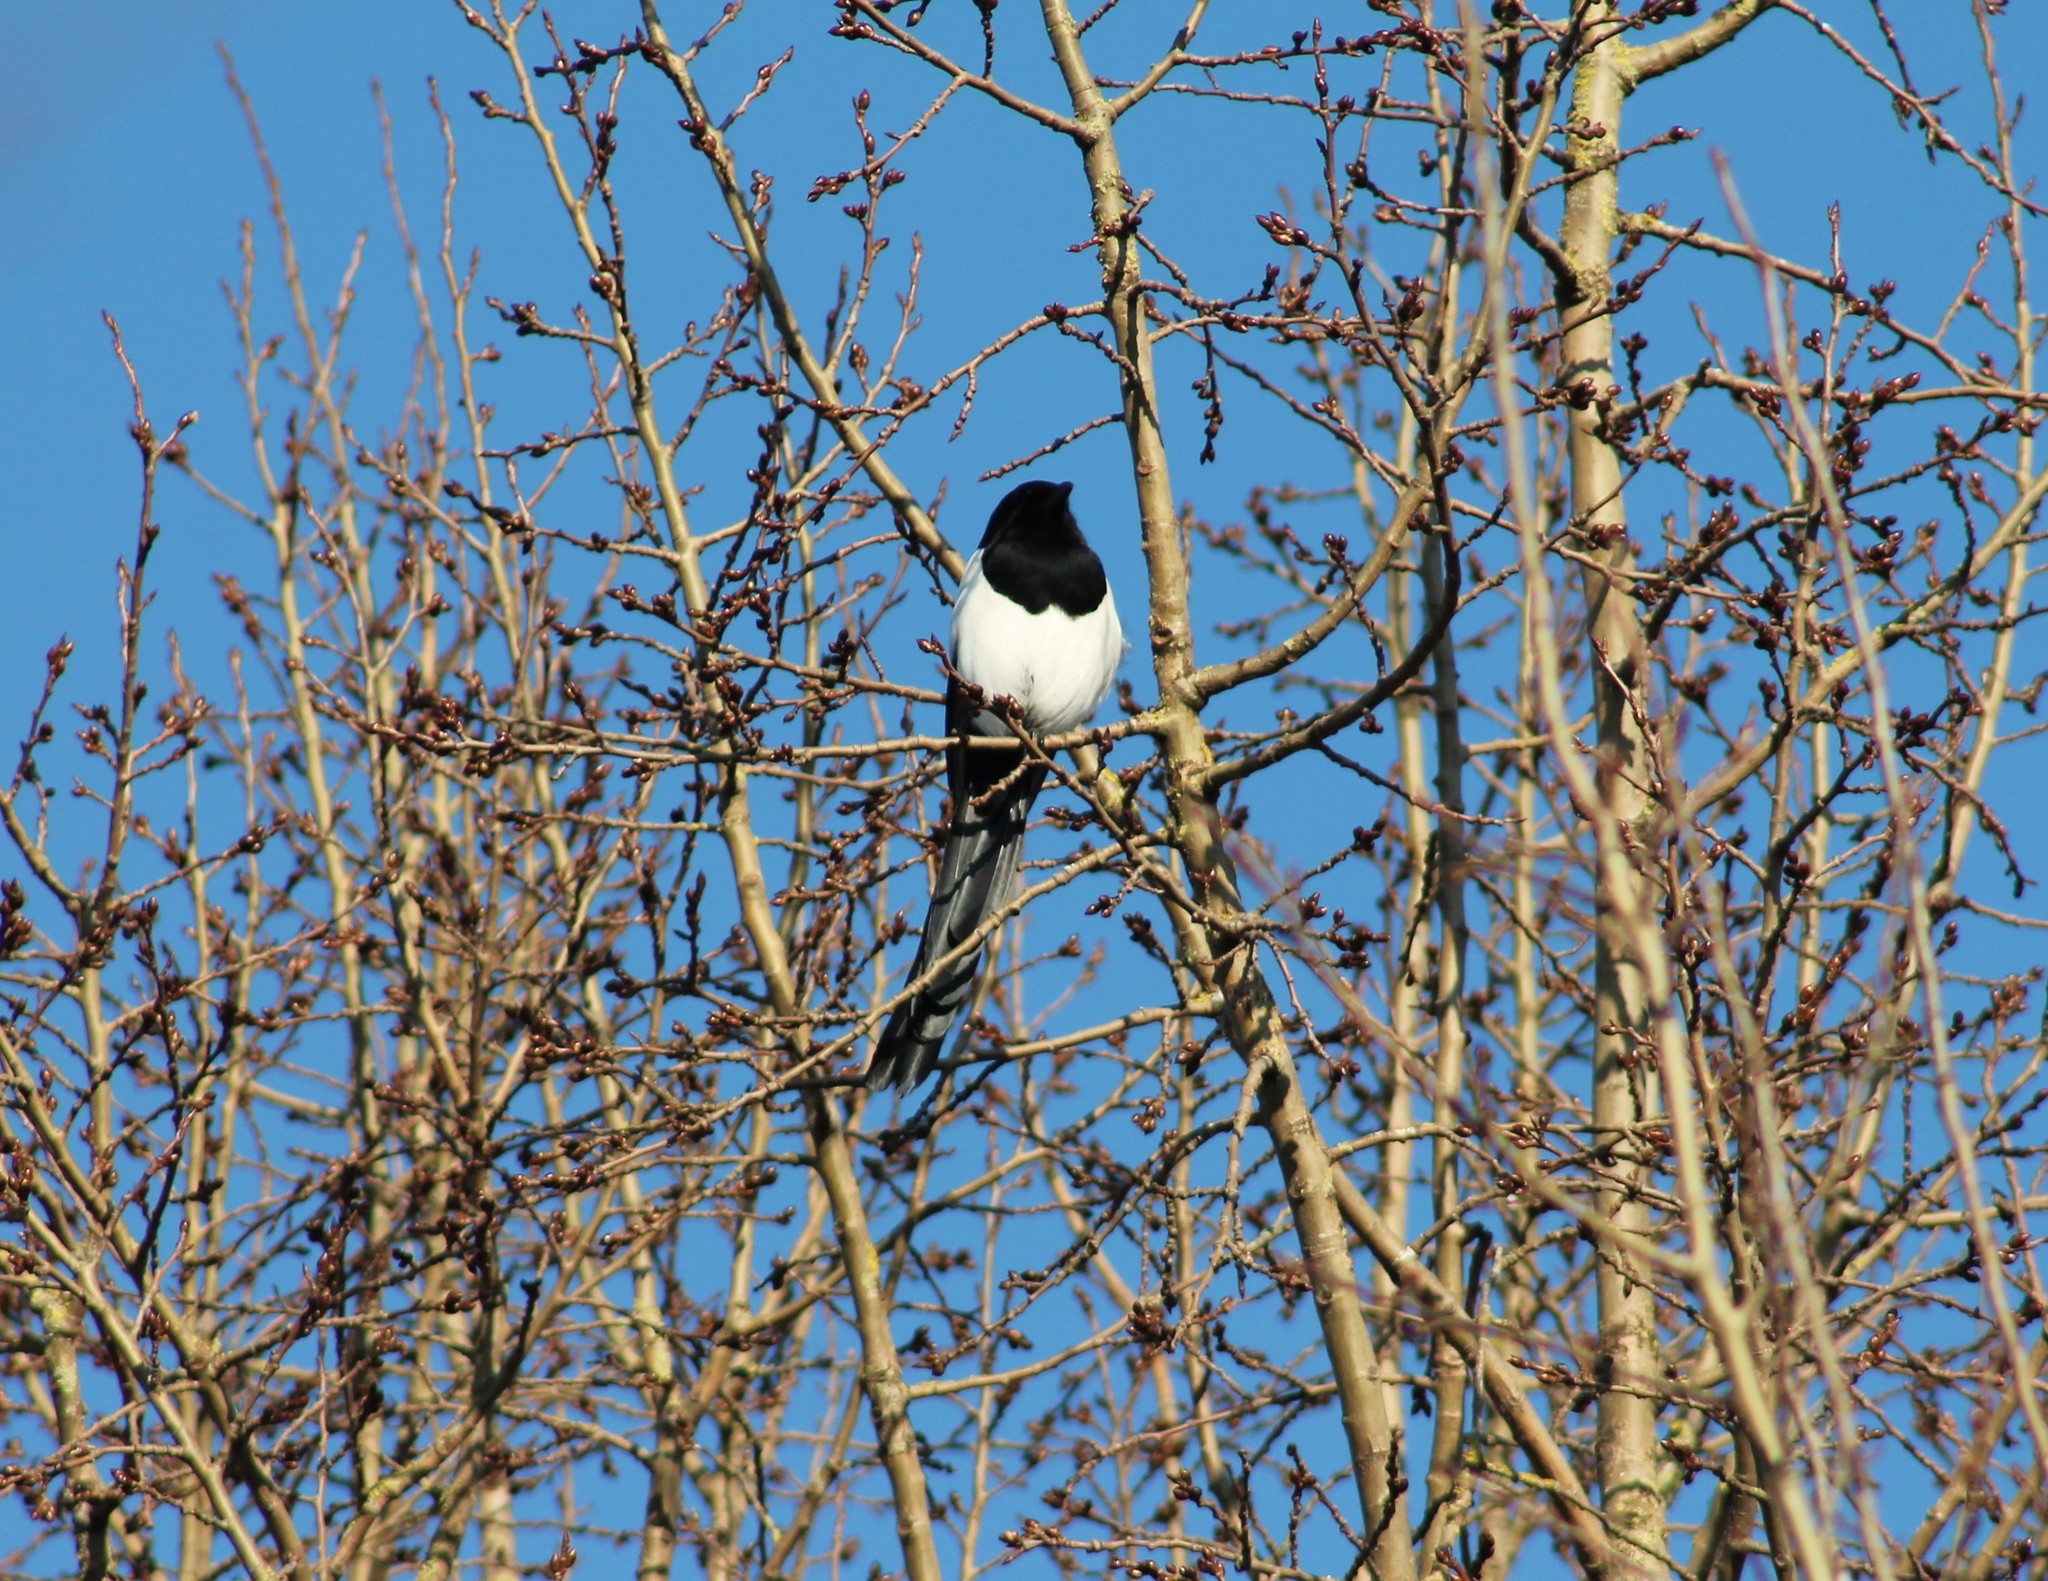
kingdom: Animalia
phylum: Chordata
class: Aves
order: Passeriformes
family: Corvidae
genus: Pica
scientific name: Pica pica
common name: Eurasian magpie
